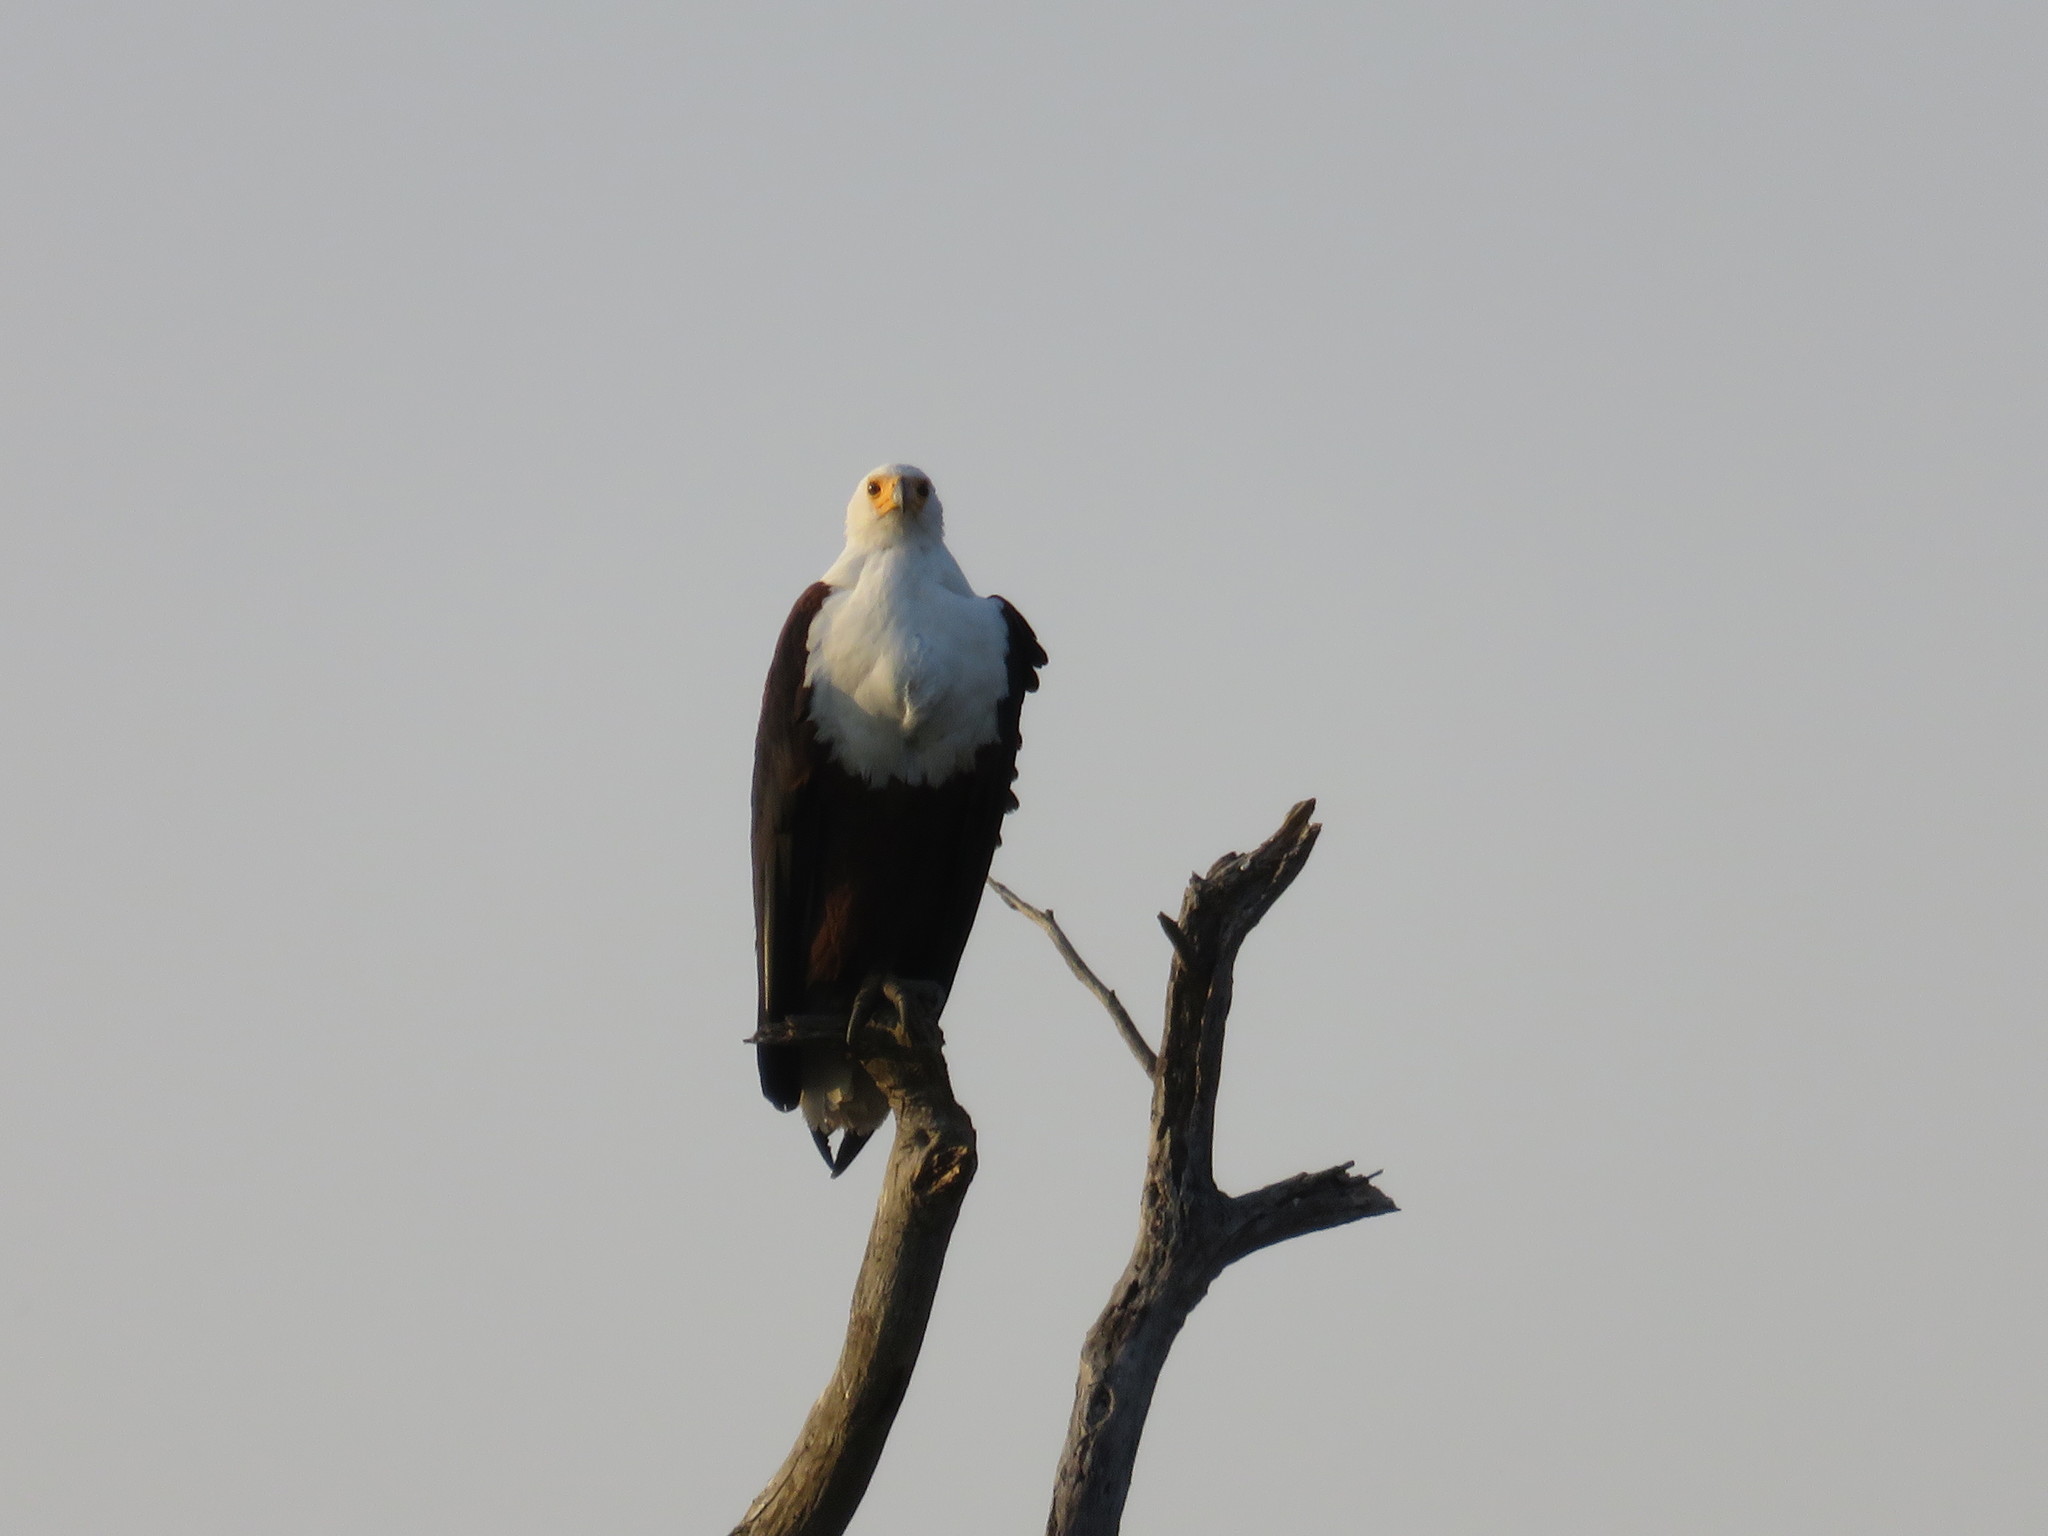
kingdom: Animalia
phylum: Chordata
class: Aves
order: Accipitriformes
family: Accipitridae
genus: Haliaeetus
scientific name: Haliaeetus vocifer
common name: African fish eagle
